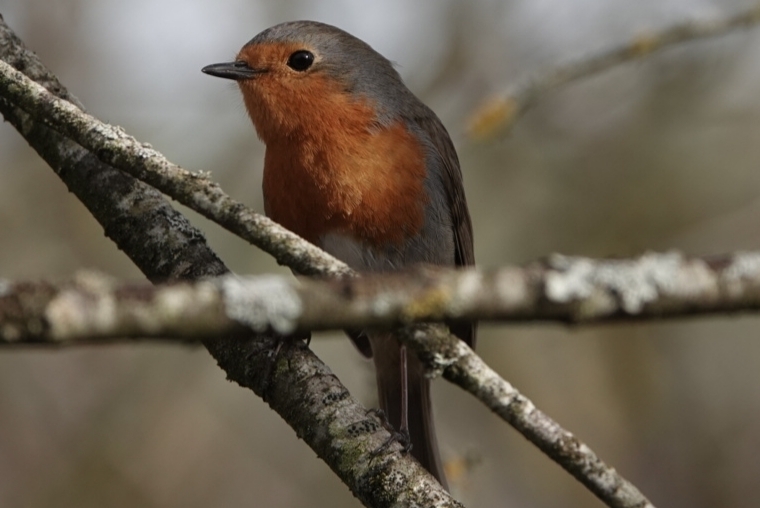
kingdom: Animalia
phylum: Chordata
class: Aves
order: Passeriformes
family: Muscicapidae
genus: Erithacus
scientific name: Erithacus rubecula
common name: European robin
